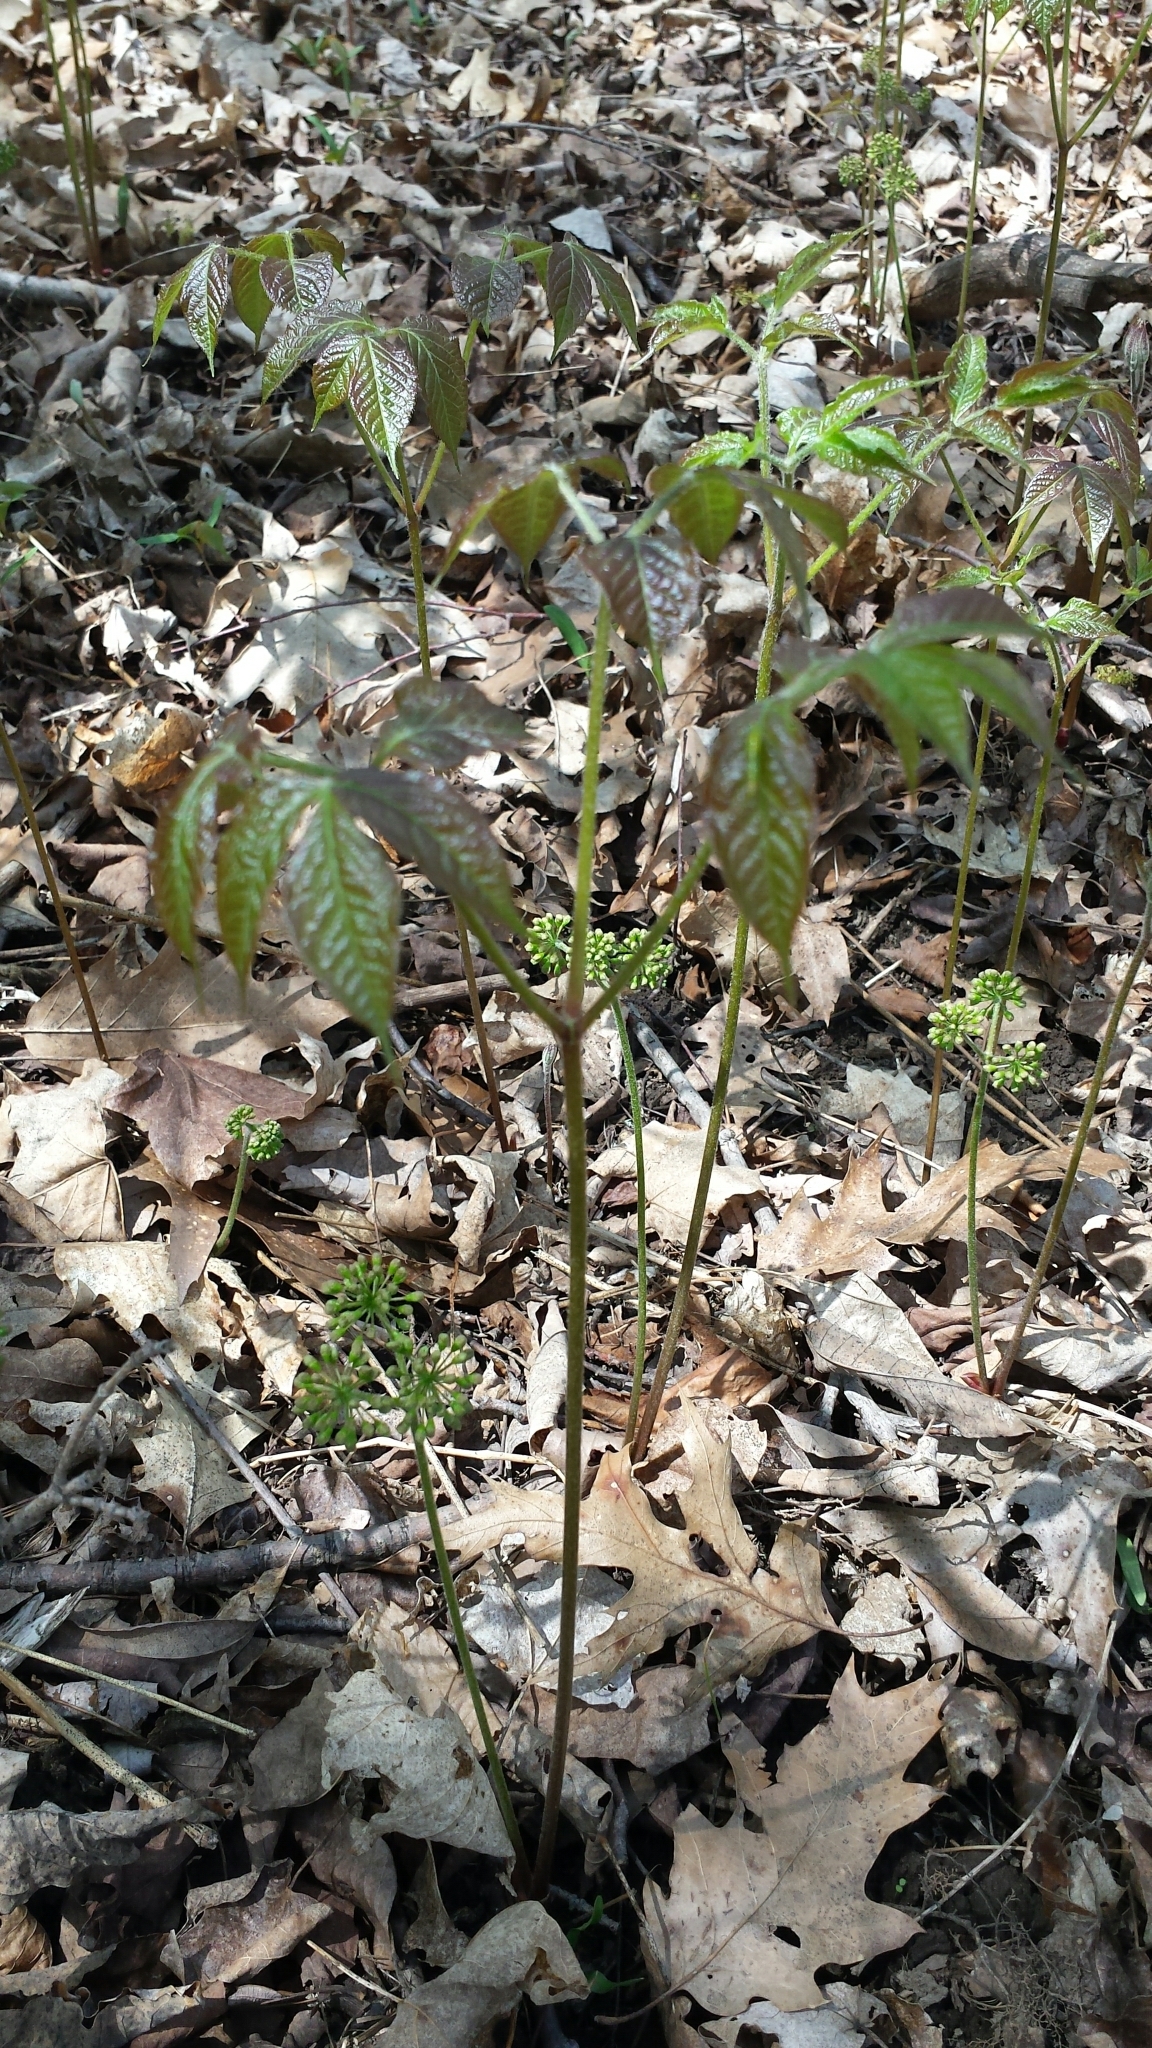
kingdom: Plantae
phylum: Tracheophyta
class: Magnoliopsida
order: Apiales
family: Araliaceae
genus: Aralia
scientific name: Aralia nudicaulis
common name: Wild sarsaparilla
